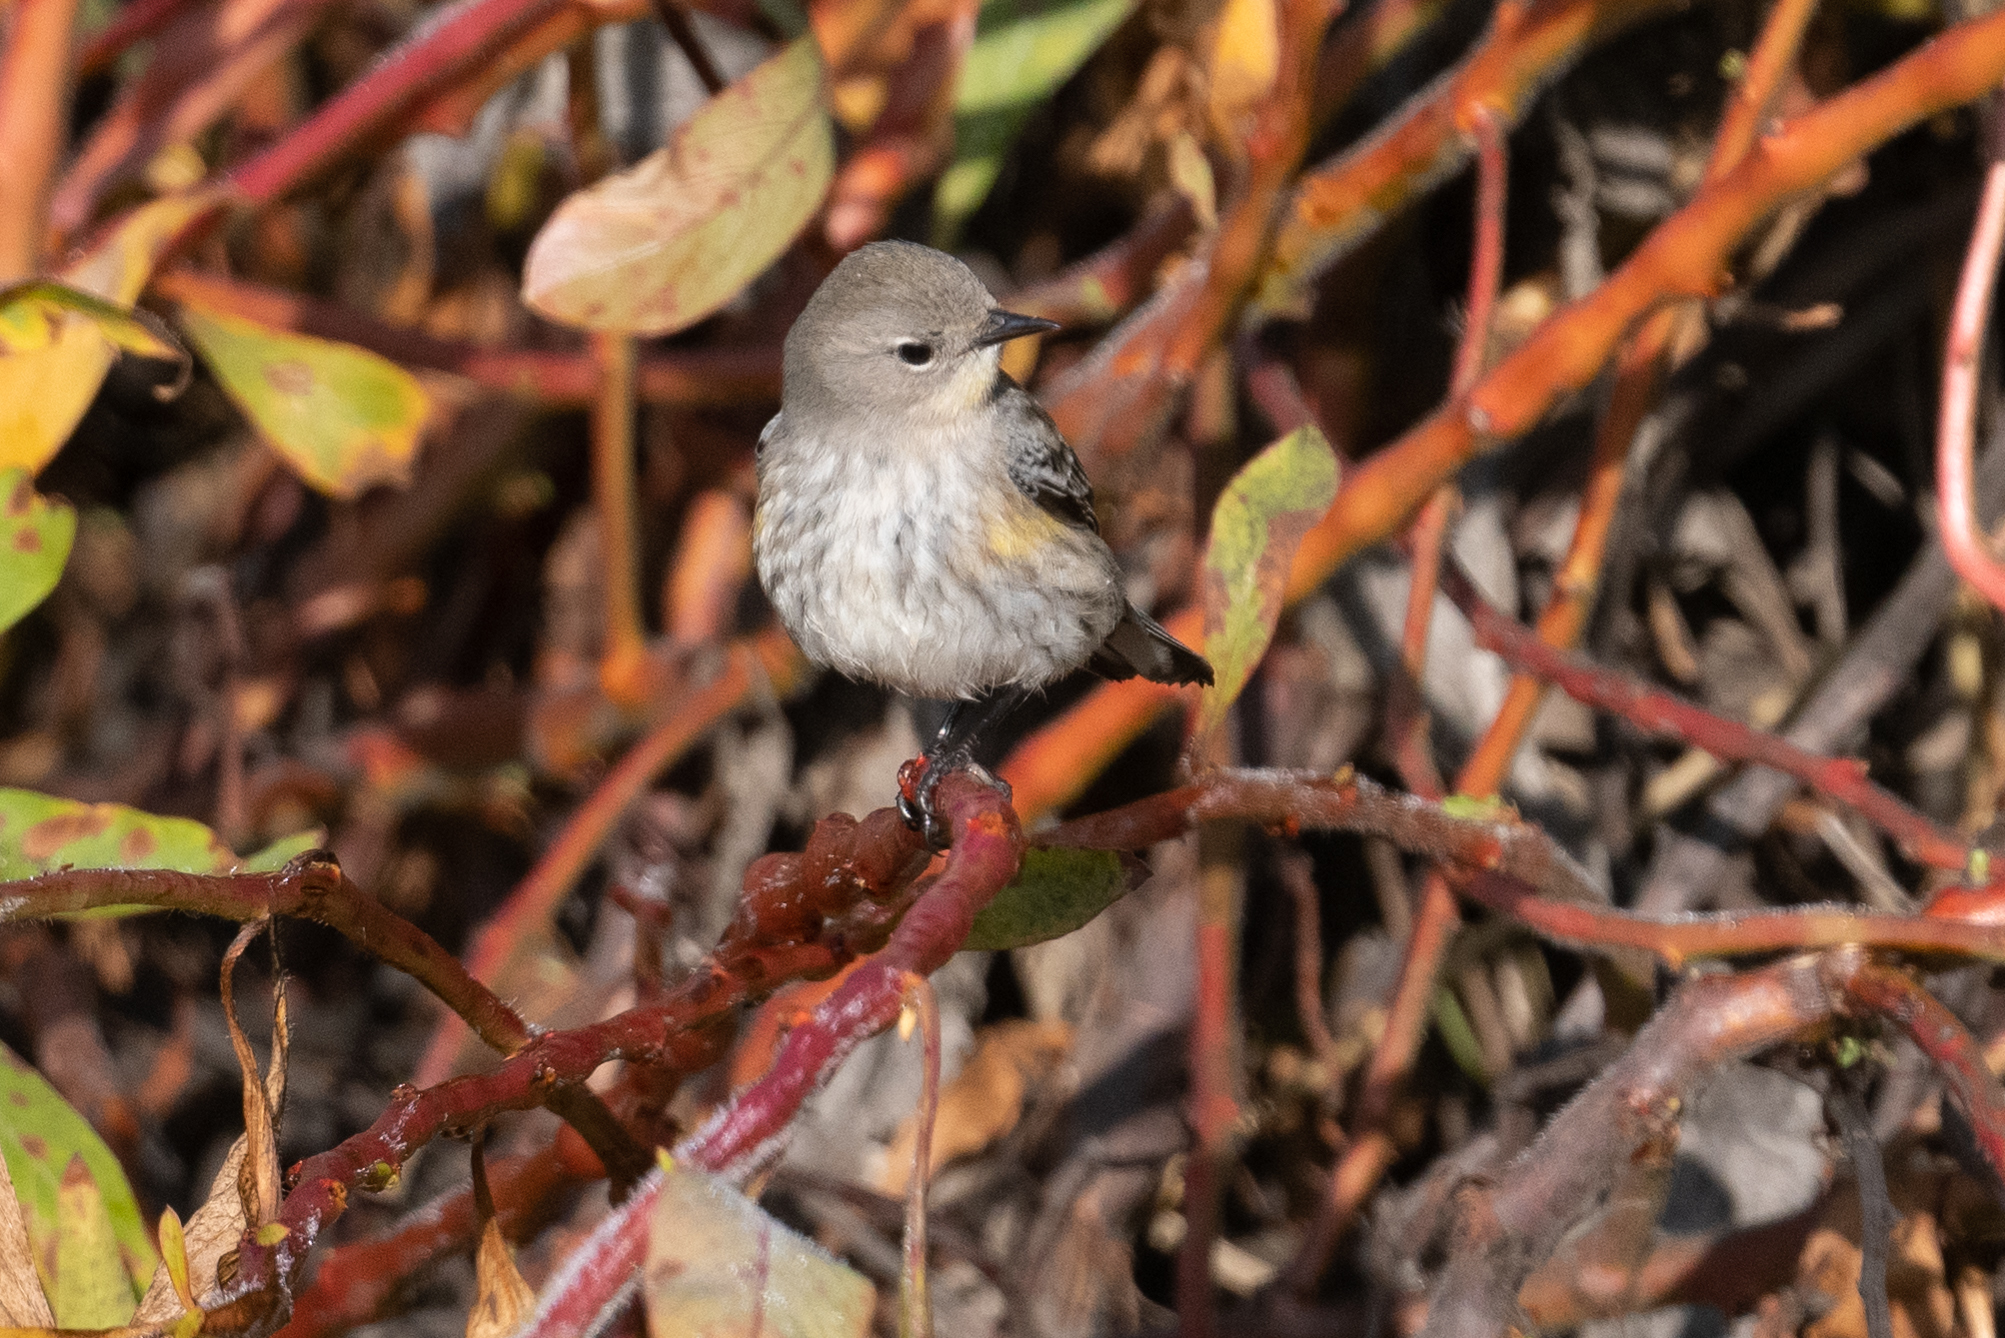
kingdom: Animalia
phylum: Chordata
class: Aves
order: Passeriformes
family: Parulidae
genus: Setophaga
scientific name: Setophaga coronata
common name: Myrtle warbler
